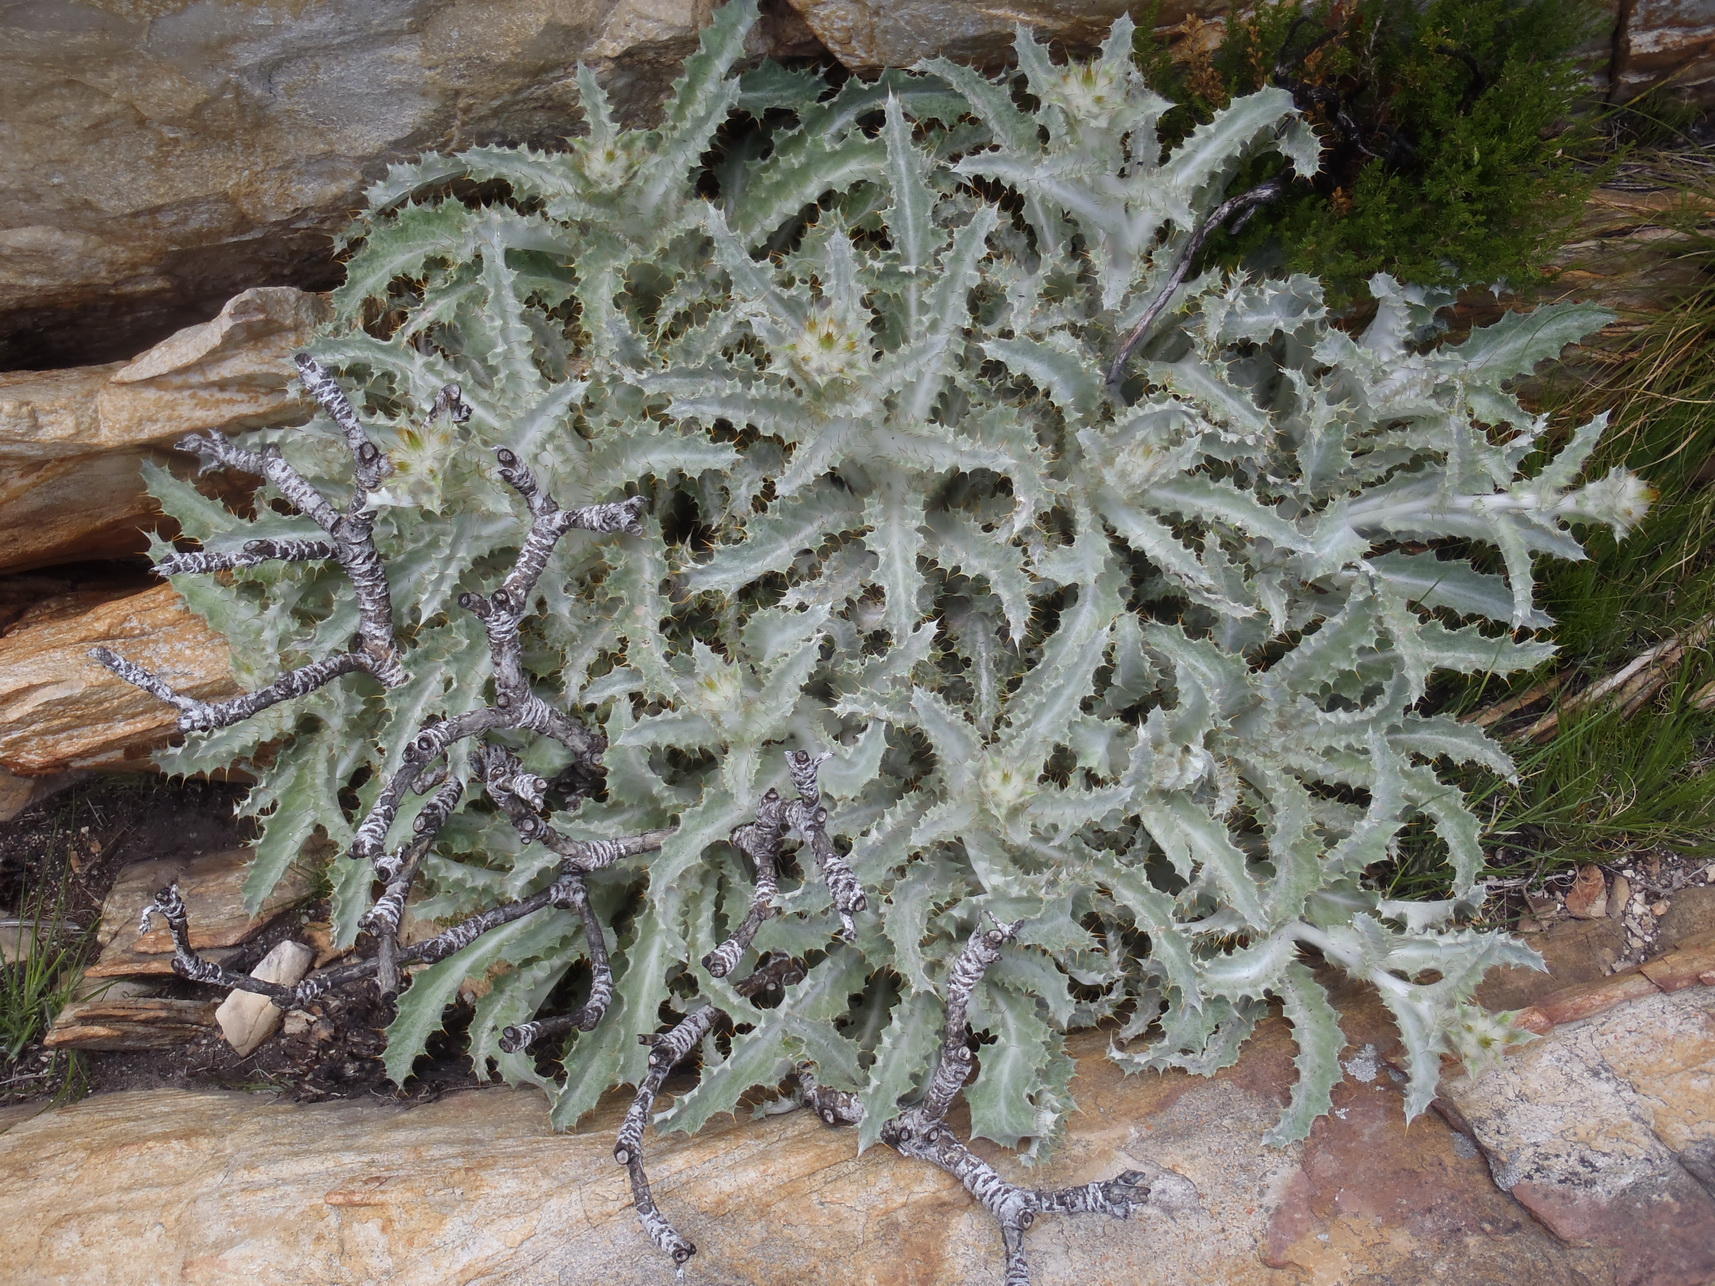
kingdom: Plantae
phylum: Tracheophyta
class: Magnoliopsida
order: Asterales
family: Asteraceae
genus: Berkheya
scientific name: Berkheya francisci
